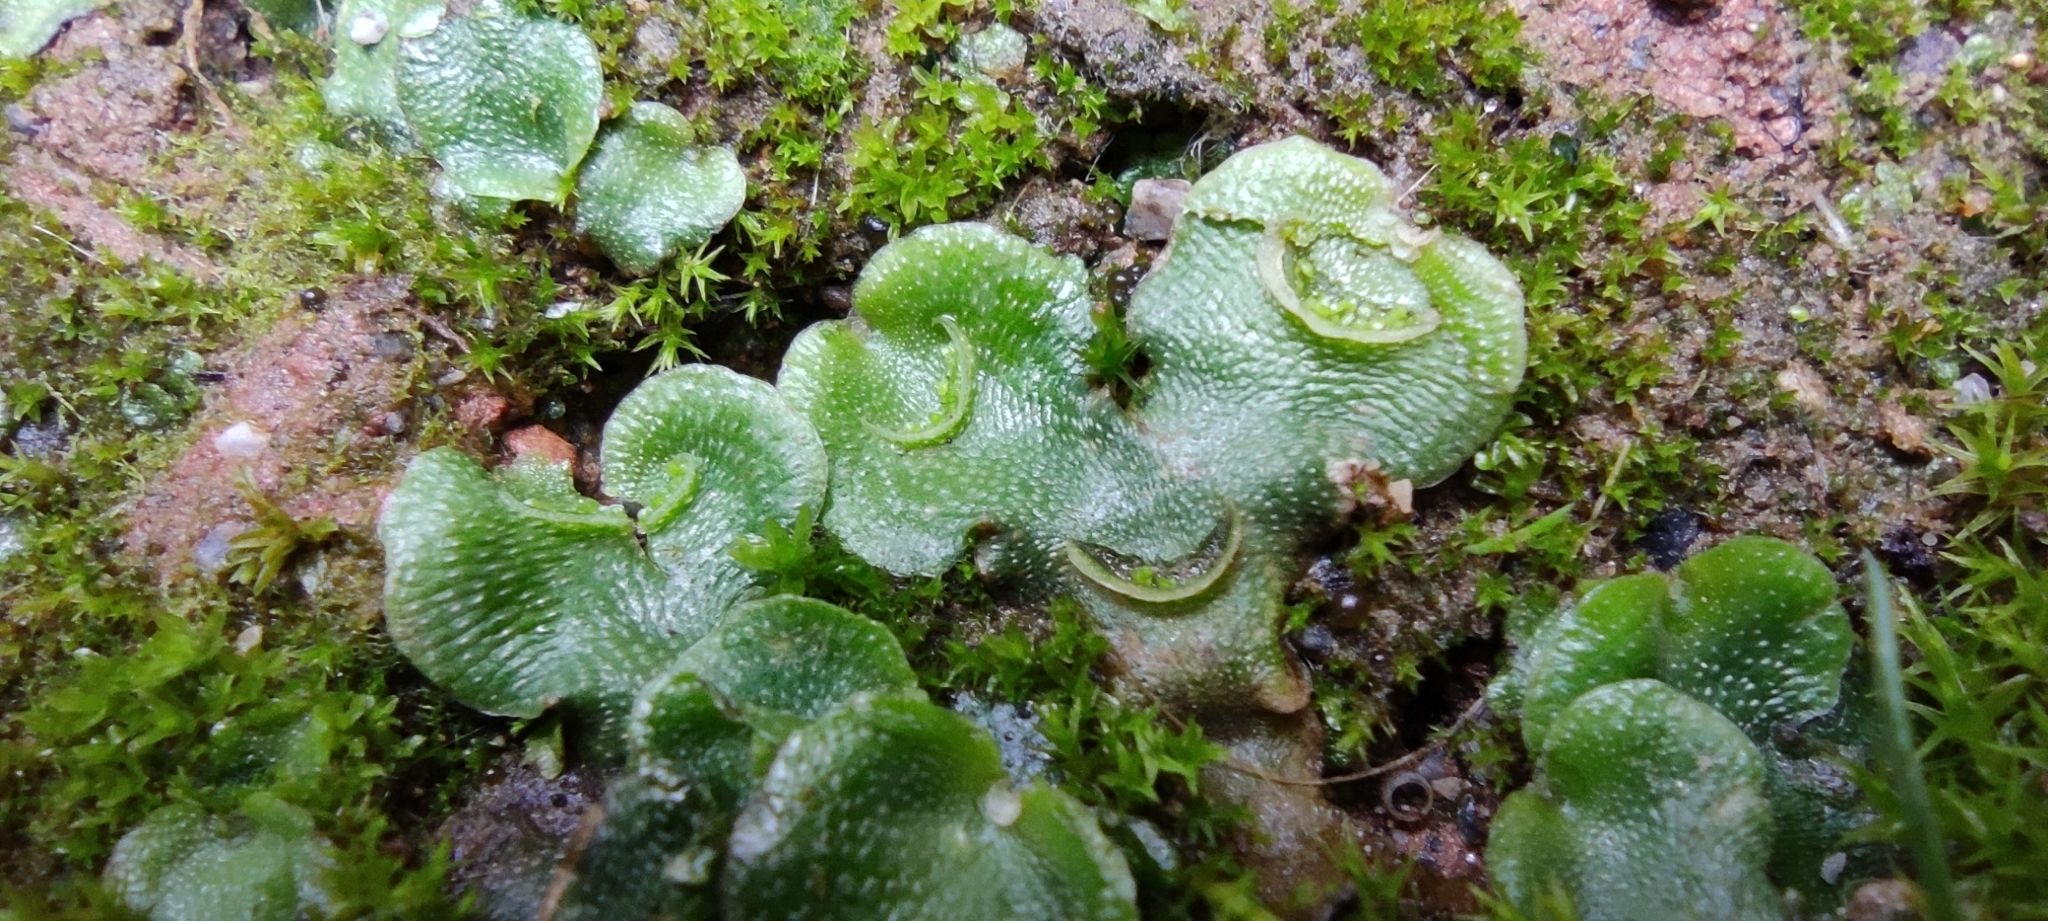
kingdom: Plantae
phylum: Marchantiophyta
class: Marchantiopsida
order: Lunulariales
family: Lunulariaceae
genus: Lunularia
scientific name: Lunularia cruciata
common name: Crescent-cup liverwort
